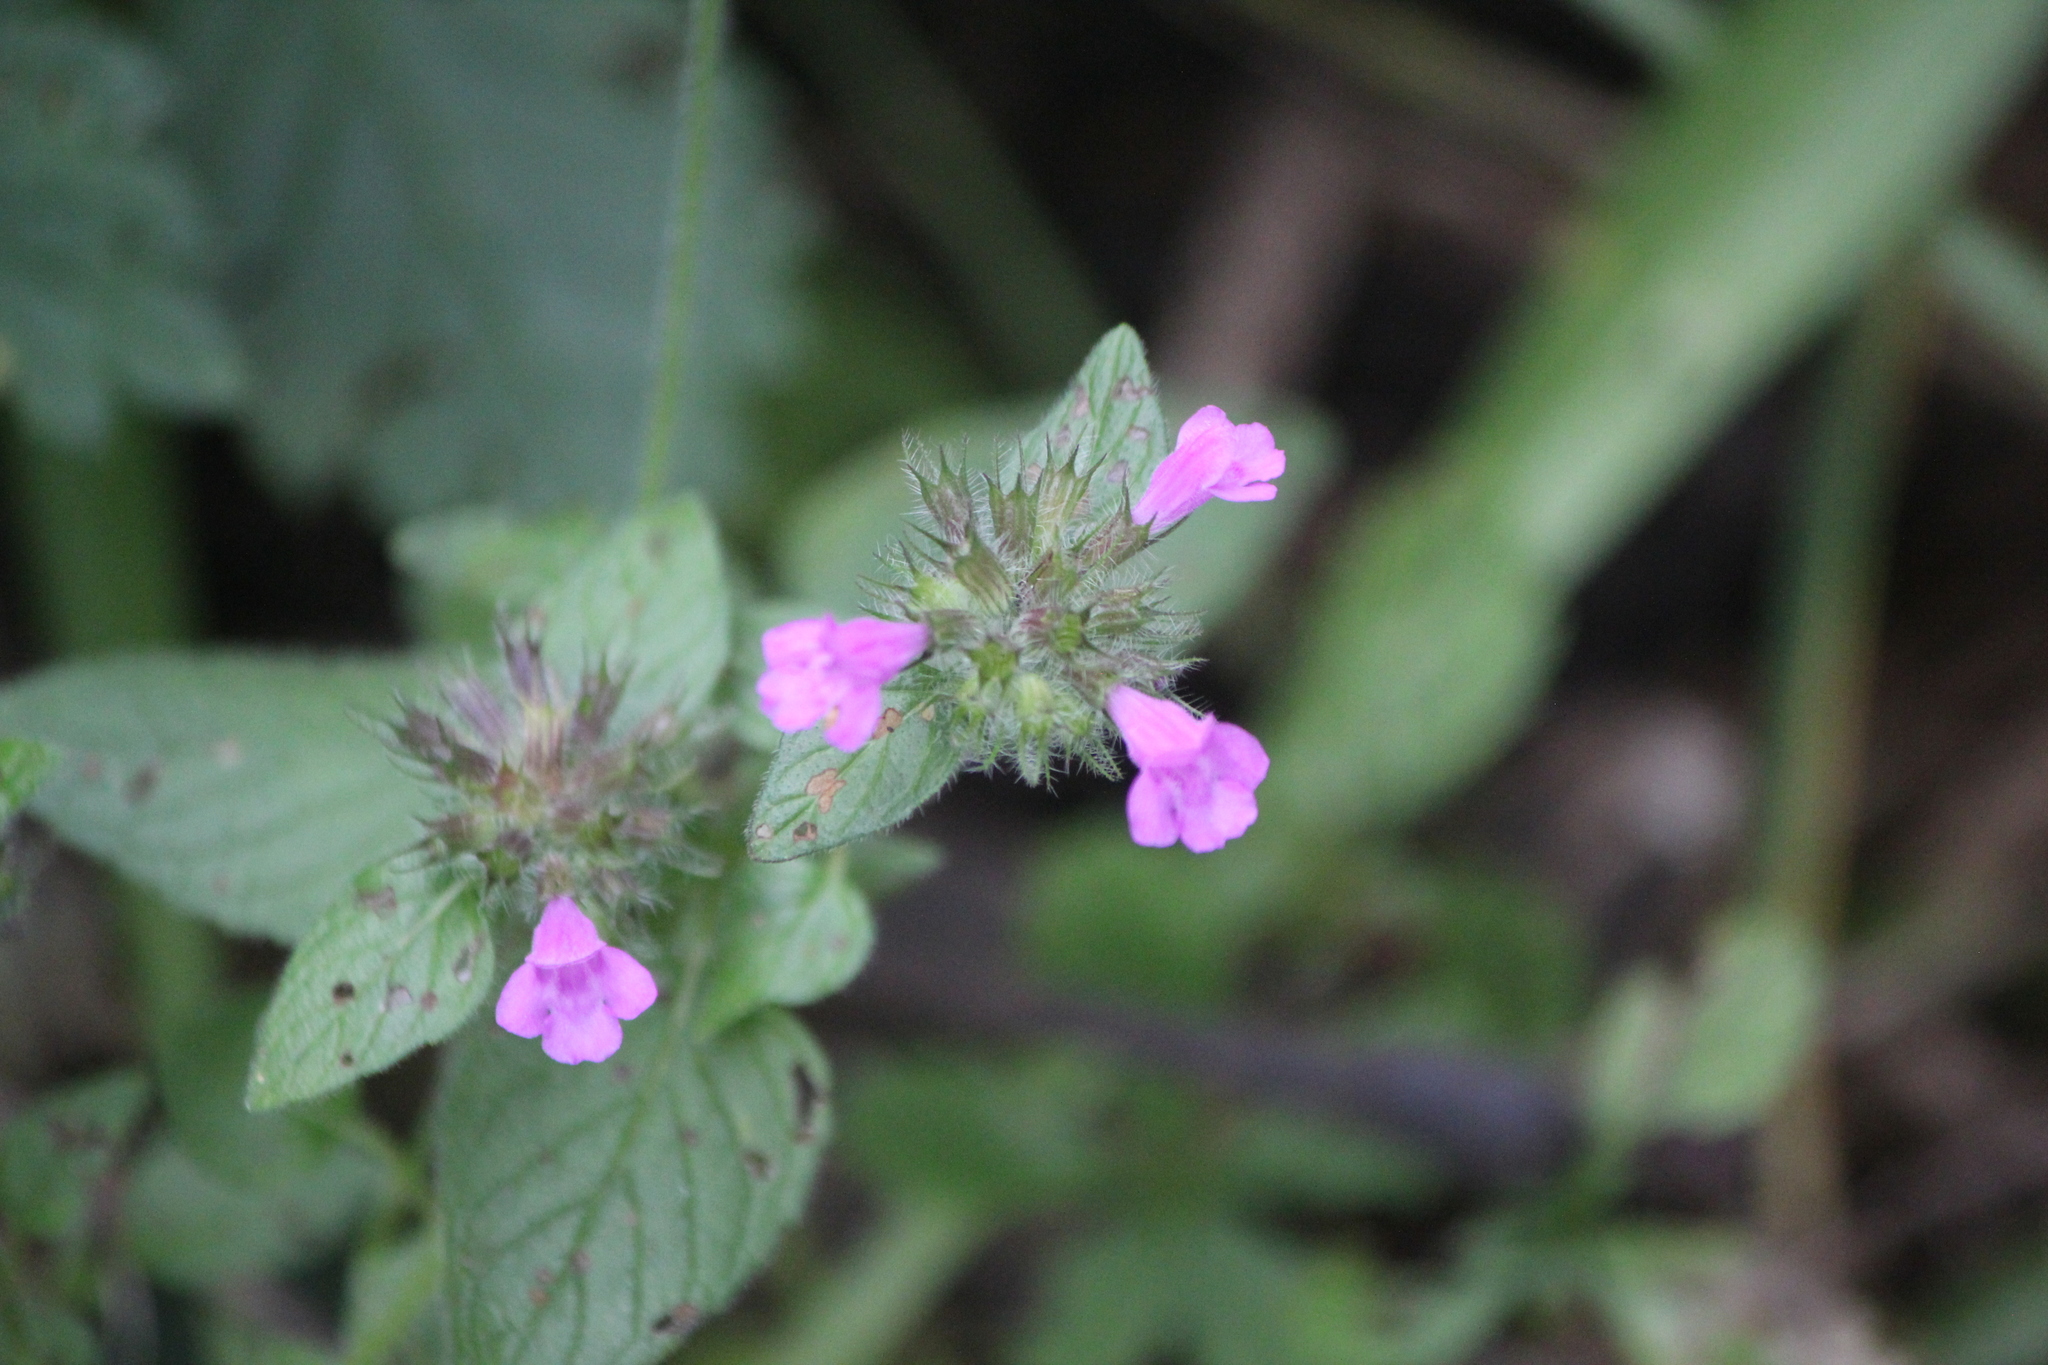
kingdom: Plantae
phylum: Tracheophyta
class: Magnoliopsida
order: Lamiales
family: Lamiaceae
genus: Clinopodium
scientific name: Clinopodium vulgare
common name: Wild basil
